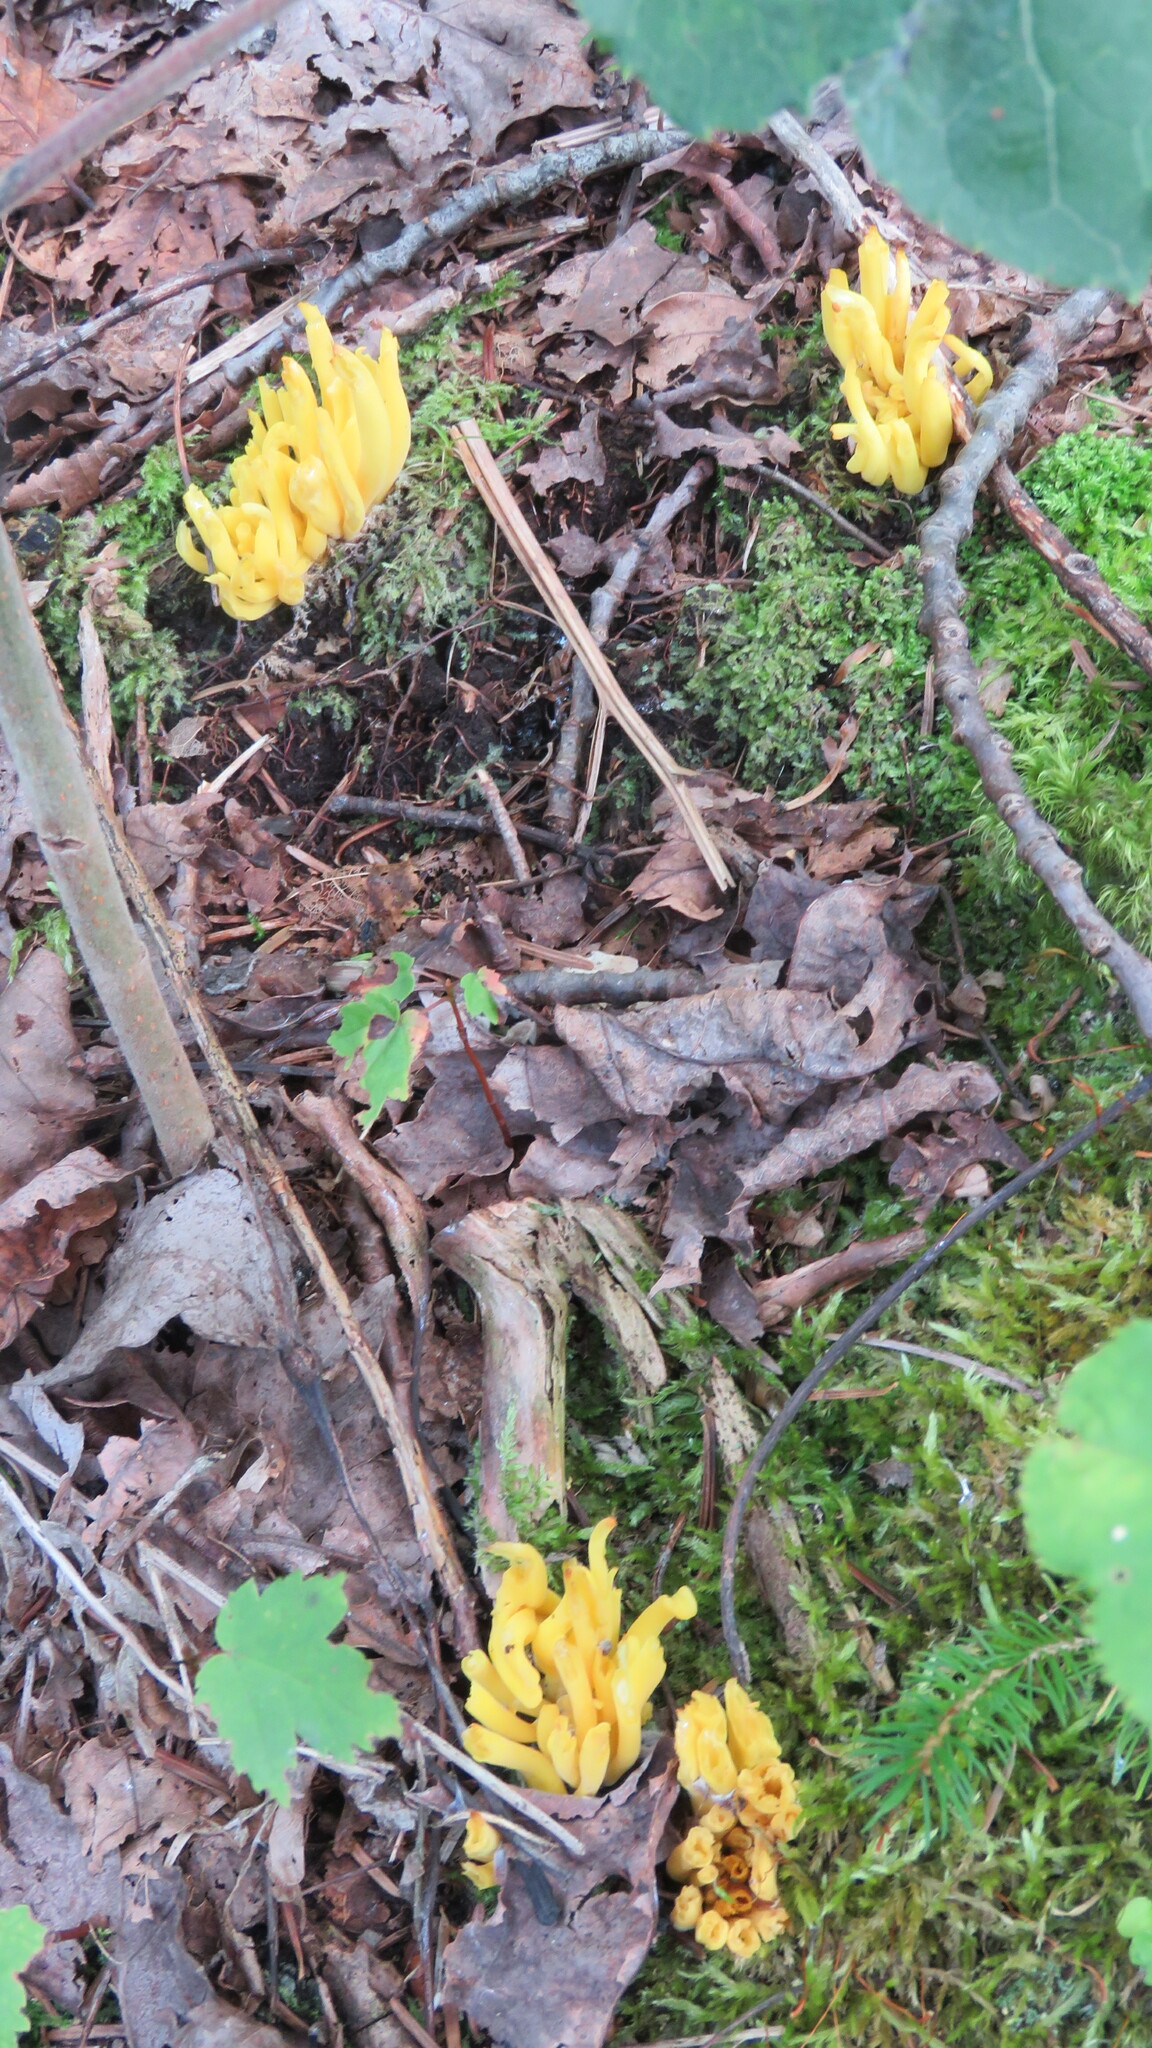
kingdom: Fungi
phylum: Basidiomycota
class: Agaricomycetes
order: Agaricales
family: Clavariaceae
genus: Clavulinopsis
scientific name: Clavulinopsis fusiformis
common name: Golden spindles
